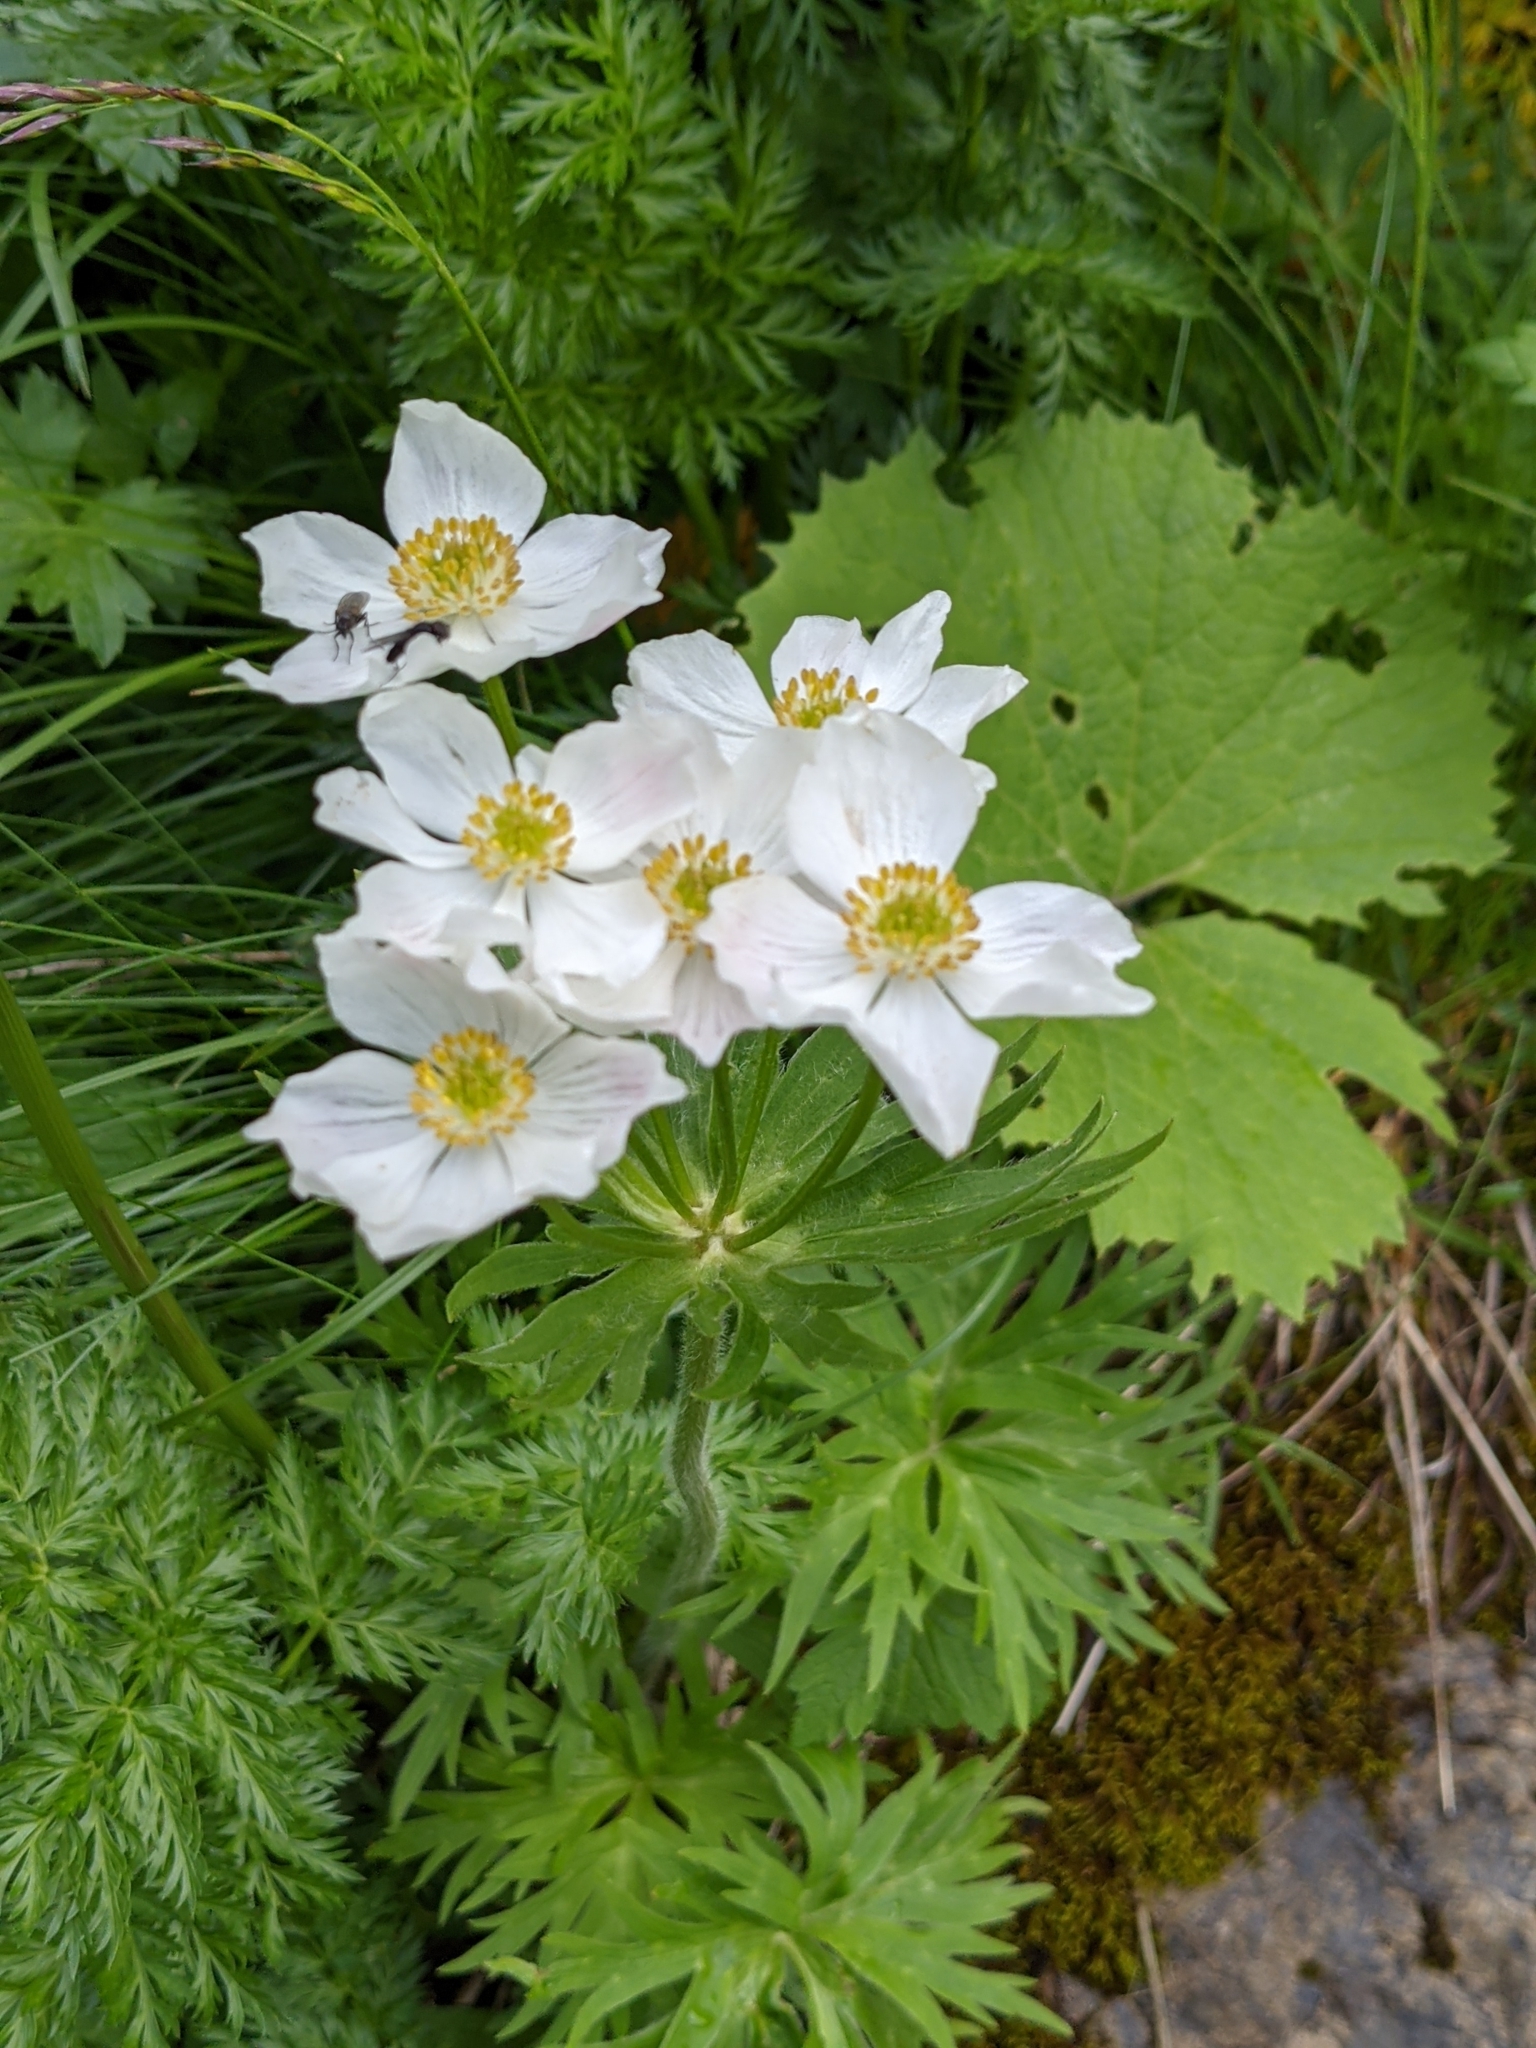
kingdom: Plantae
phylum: Tracheophyta
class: Magnoliopsida
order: Ranunculales
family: Ranunculaceae
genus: Anemonastrum
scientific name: Anemonastrum narcissiflorum
